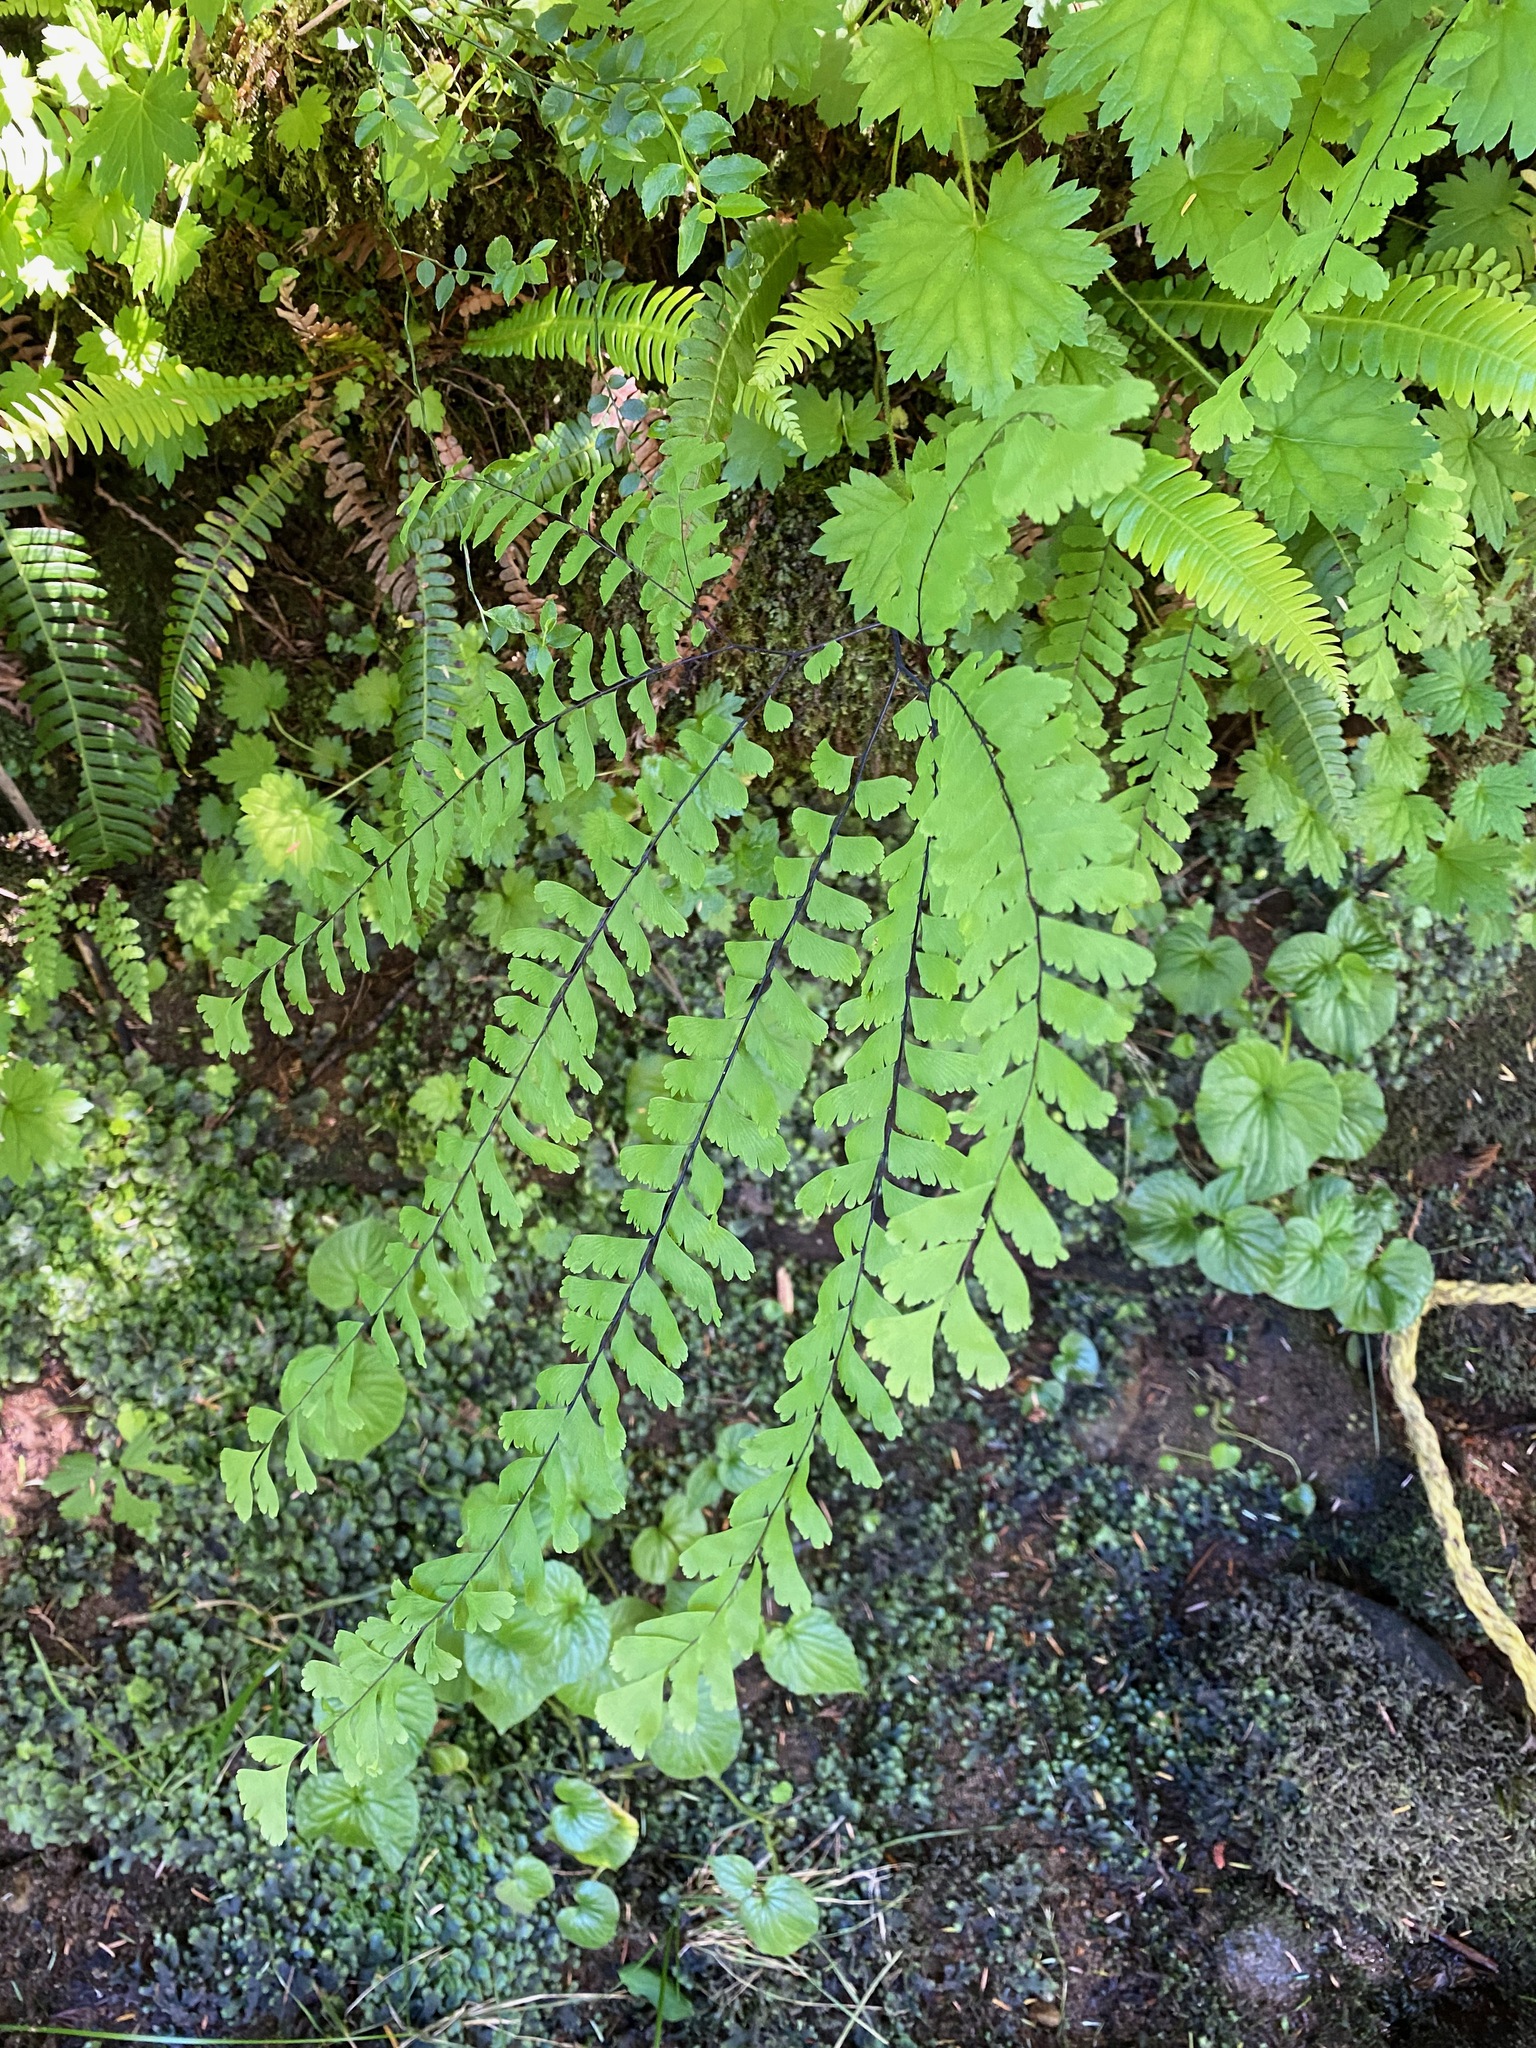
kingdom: Plantae
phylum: Tracheophyta
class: Polypodiopsida
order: Polypodiales
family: Pteridaceae
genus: Adiantum
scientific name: Adiantum aleuticum
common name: Aleutian maidenhair fern
